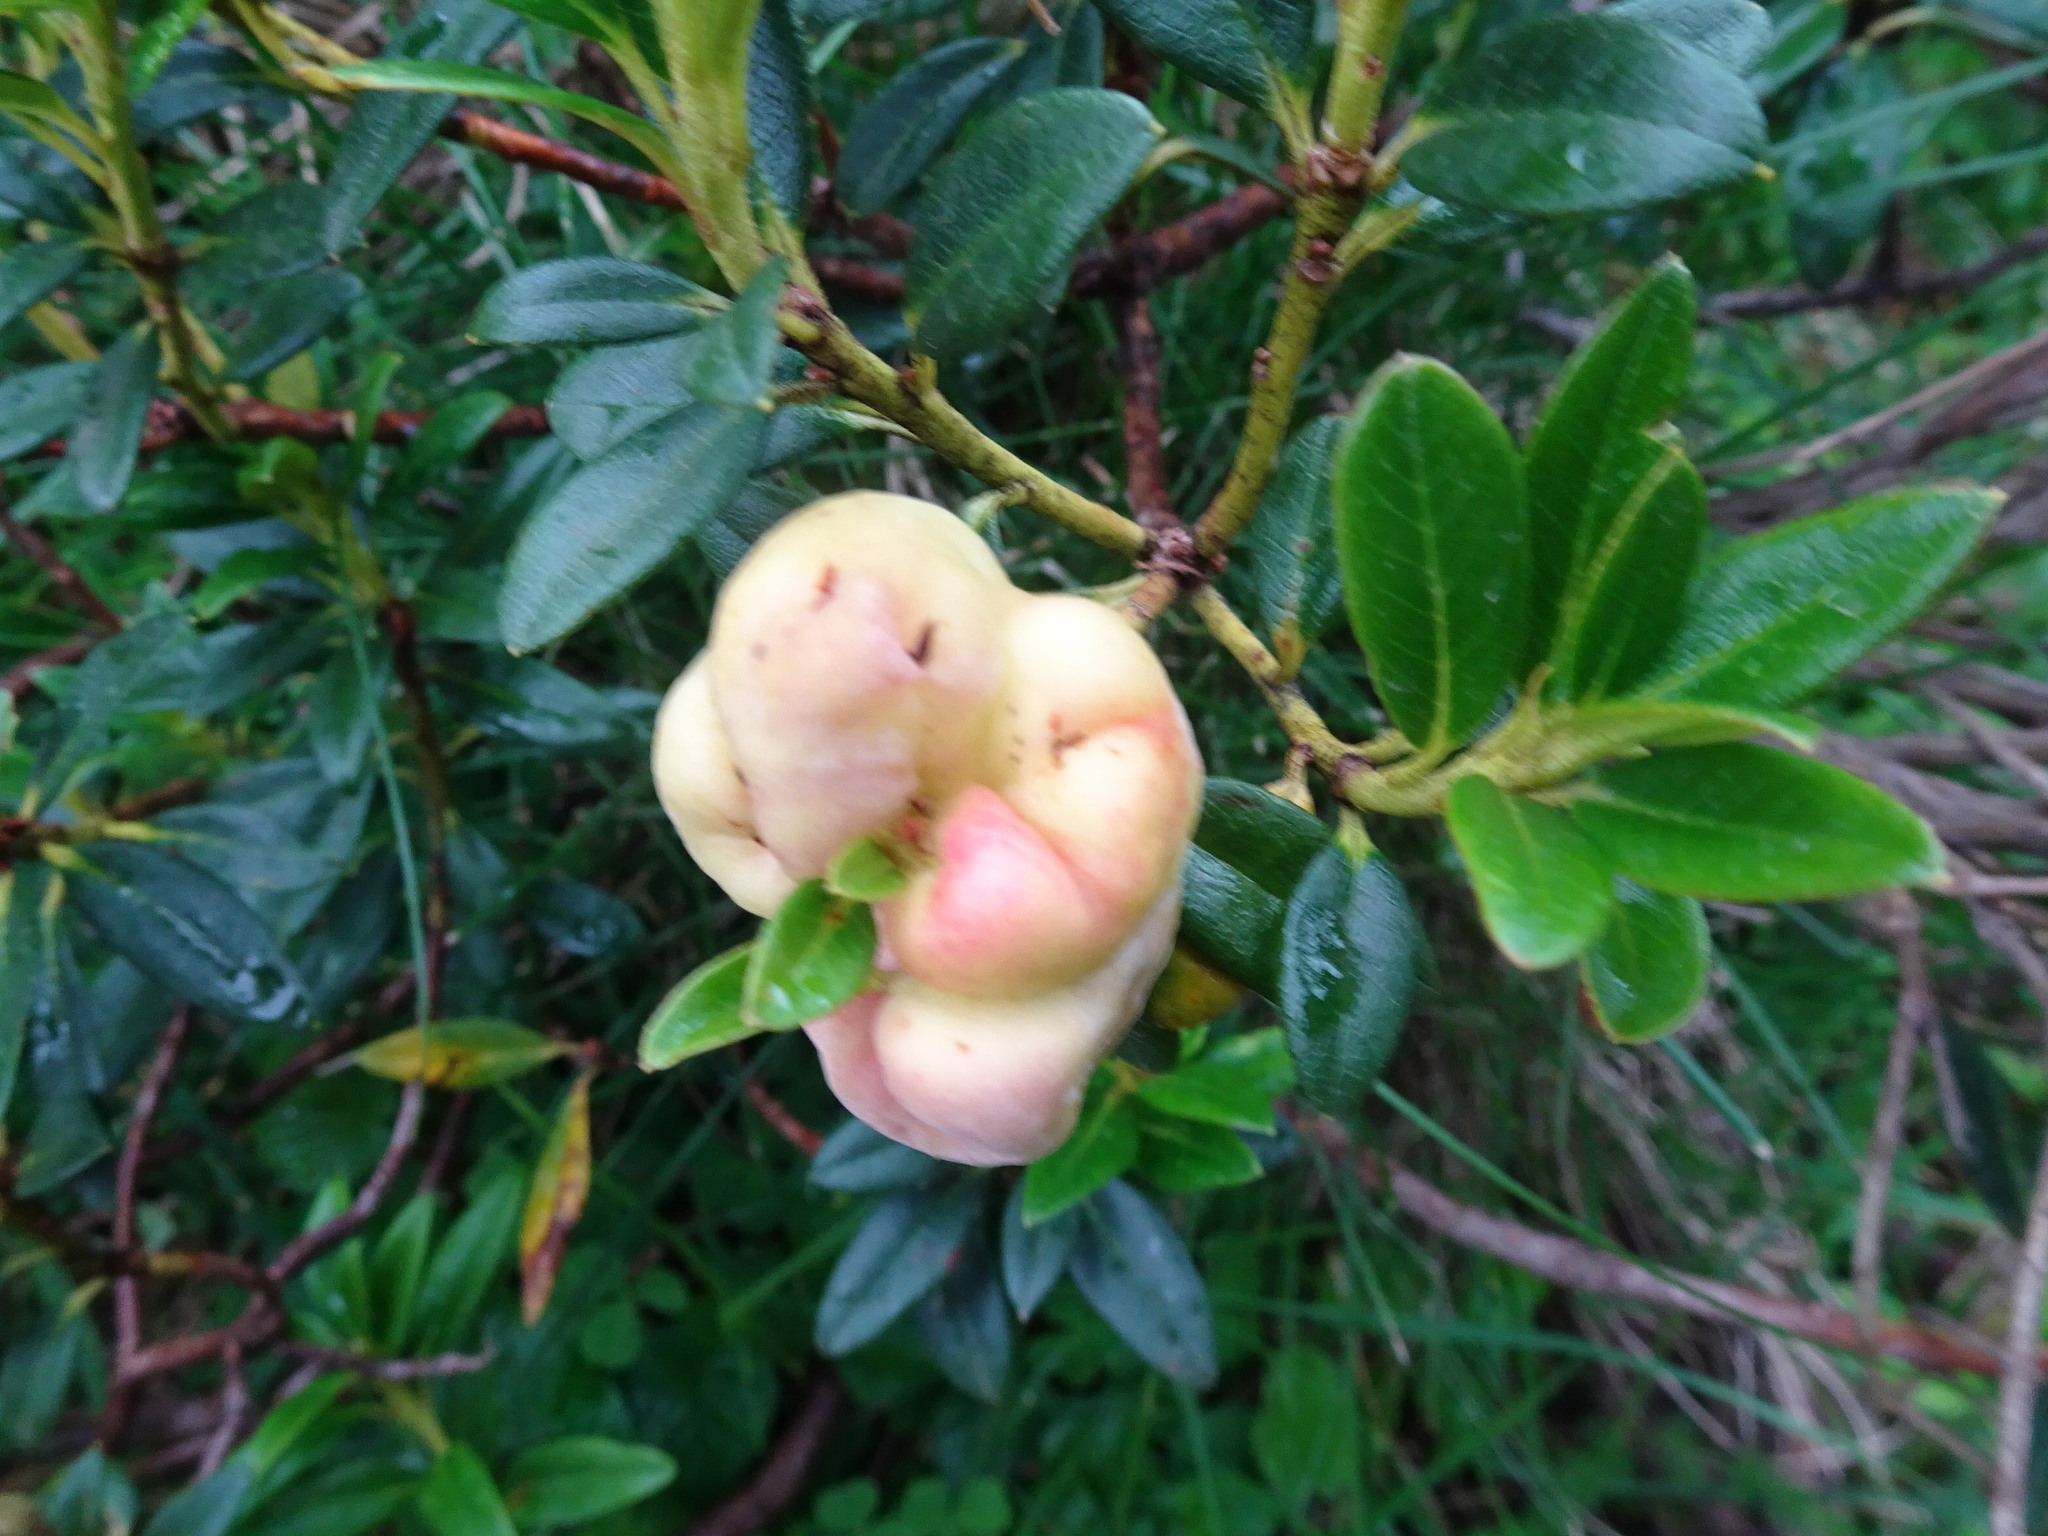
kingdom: Fungi
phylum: Basidiomycota
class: Exobasidiomycetes
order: Exobasidiales
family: Exobasidiaceae
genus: Exobasidium
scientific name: Exobasidium rhododendri
